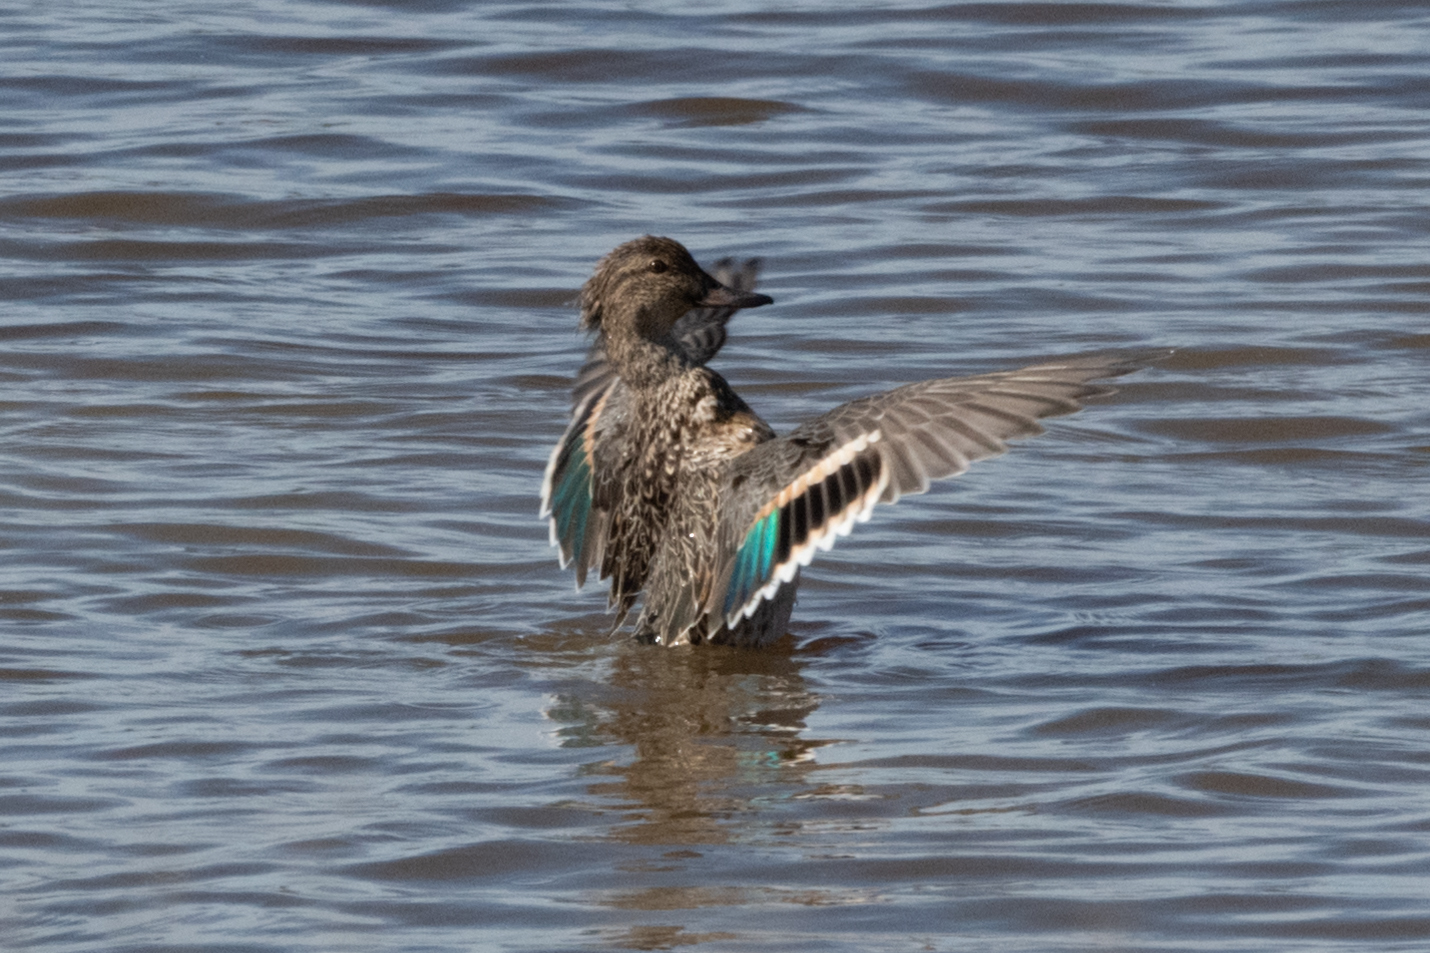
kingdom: Animalia
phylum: Chordata
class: Aves
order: Anseriformes
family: Anatidae
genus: Anas
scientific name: Anas crecca
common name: Eurasian teal
